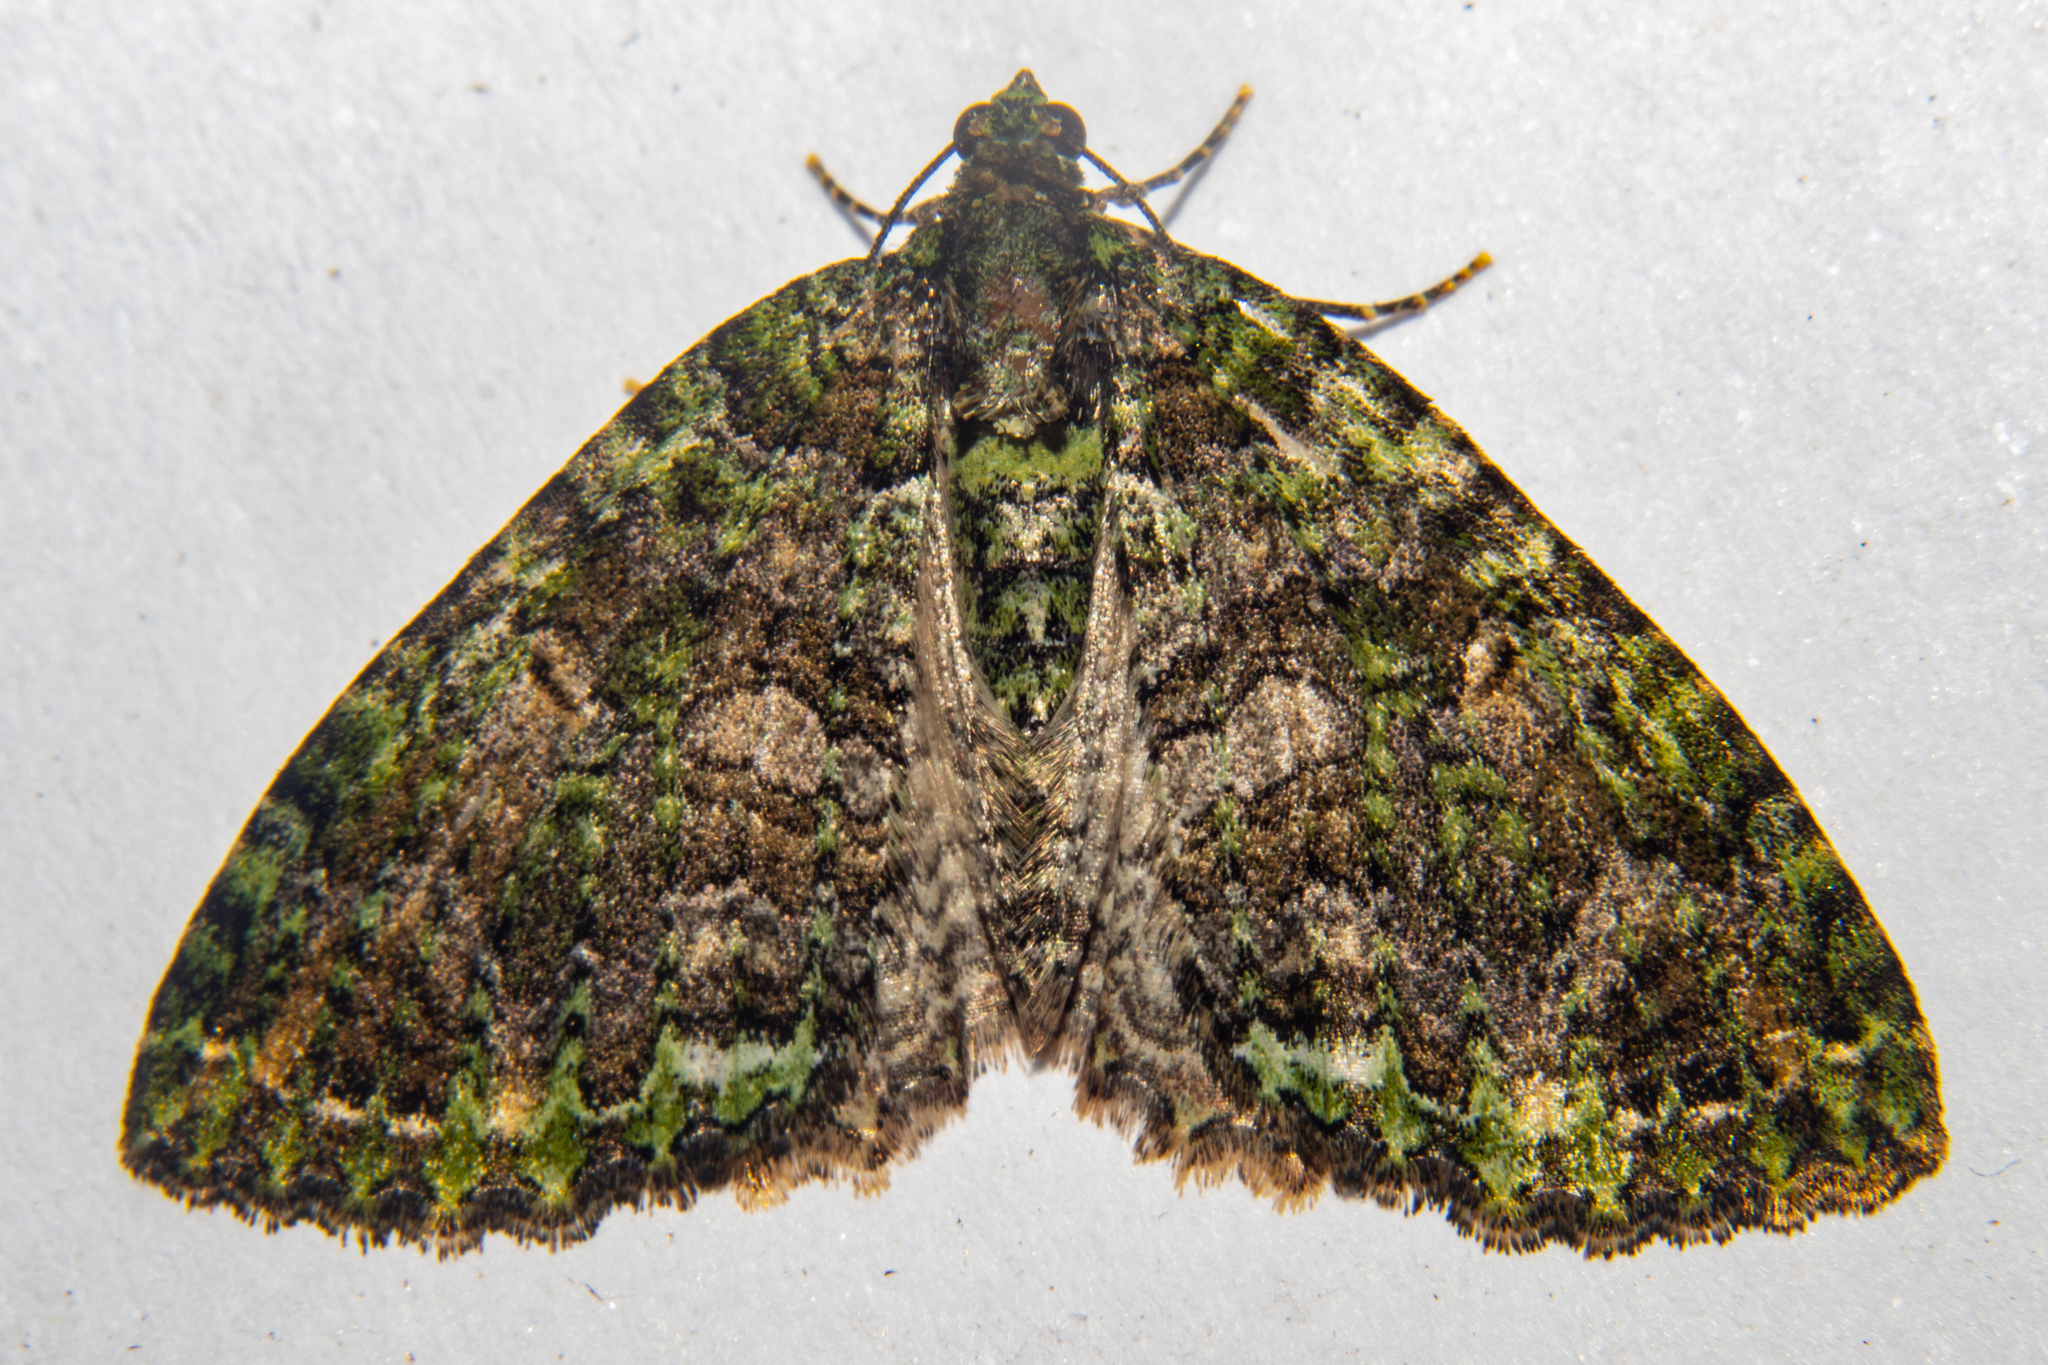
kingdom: Animalia
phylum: Arthropoda
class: Insecta
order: Lepidoptera
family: Geometridae
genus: Austrocidaria
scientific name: Austrocidaria similata
